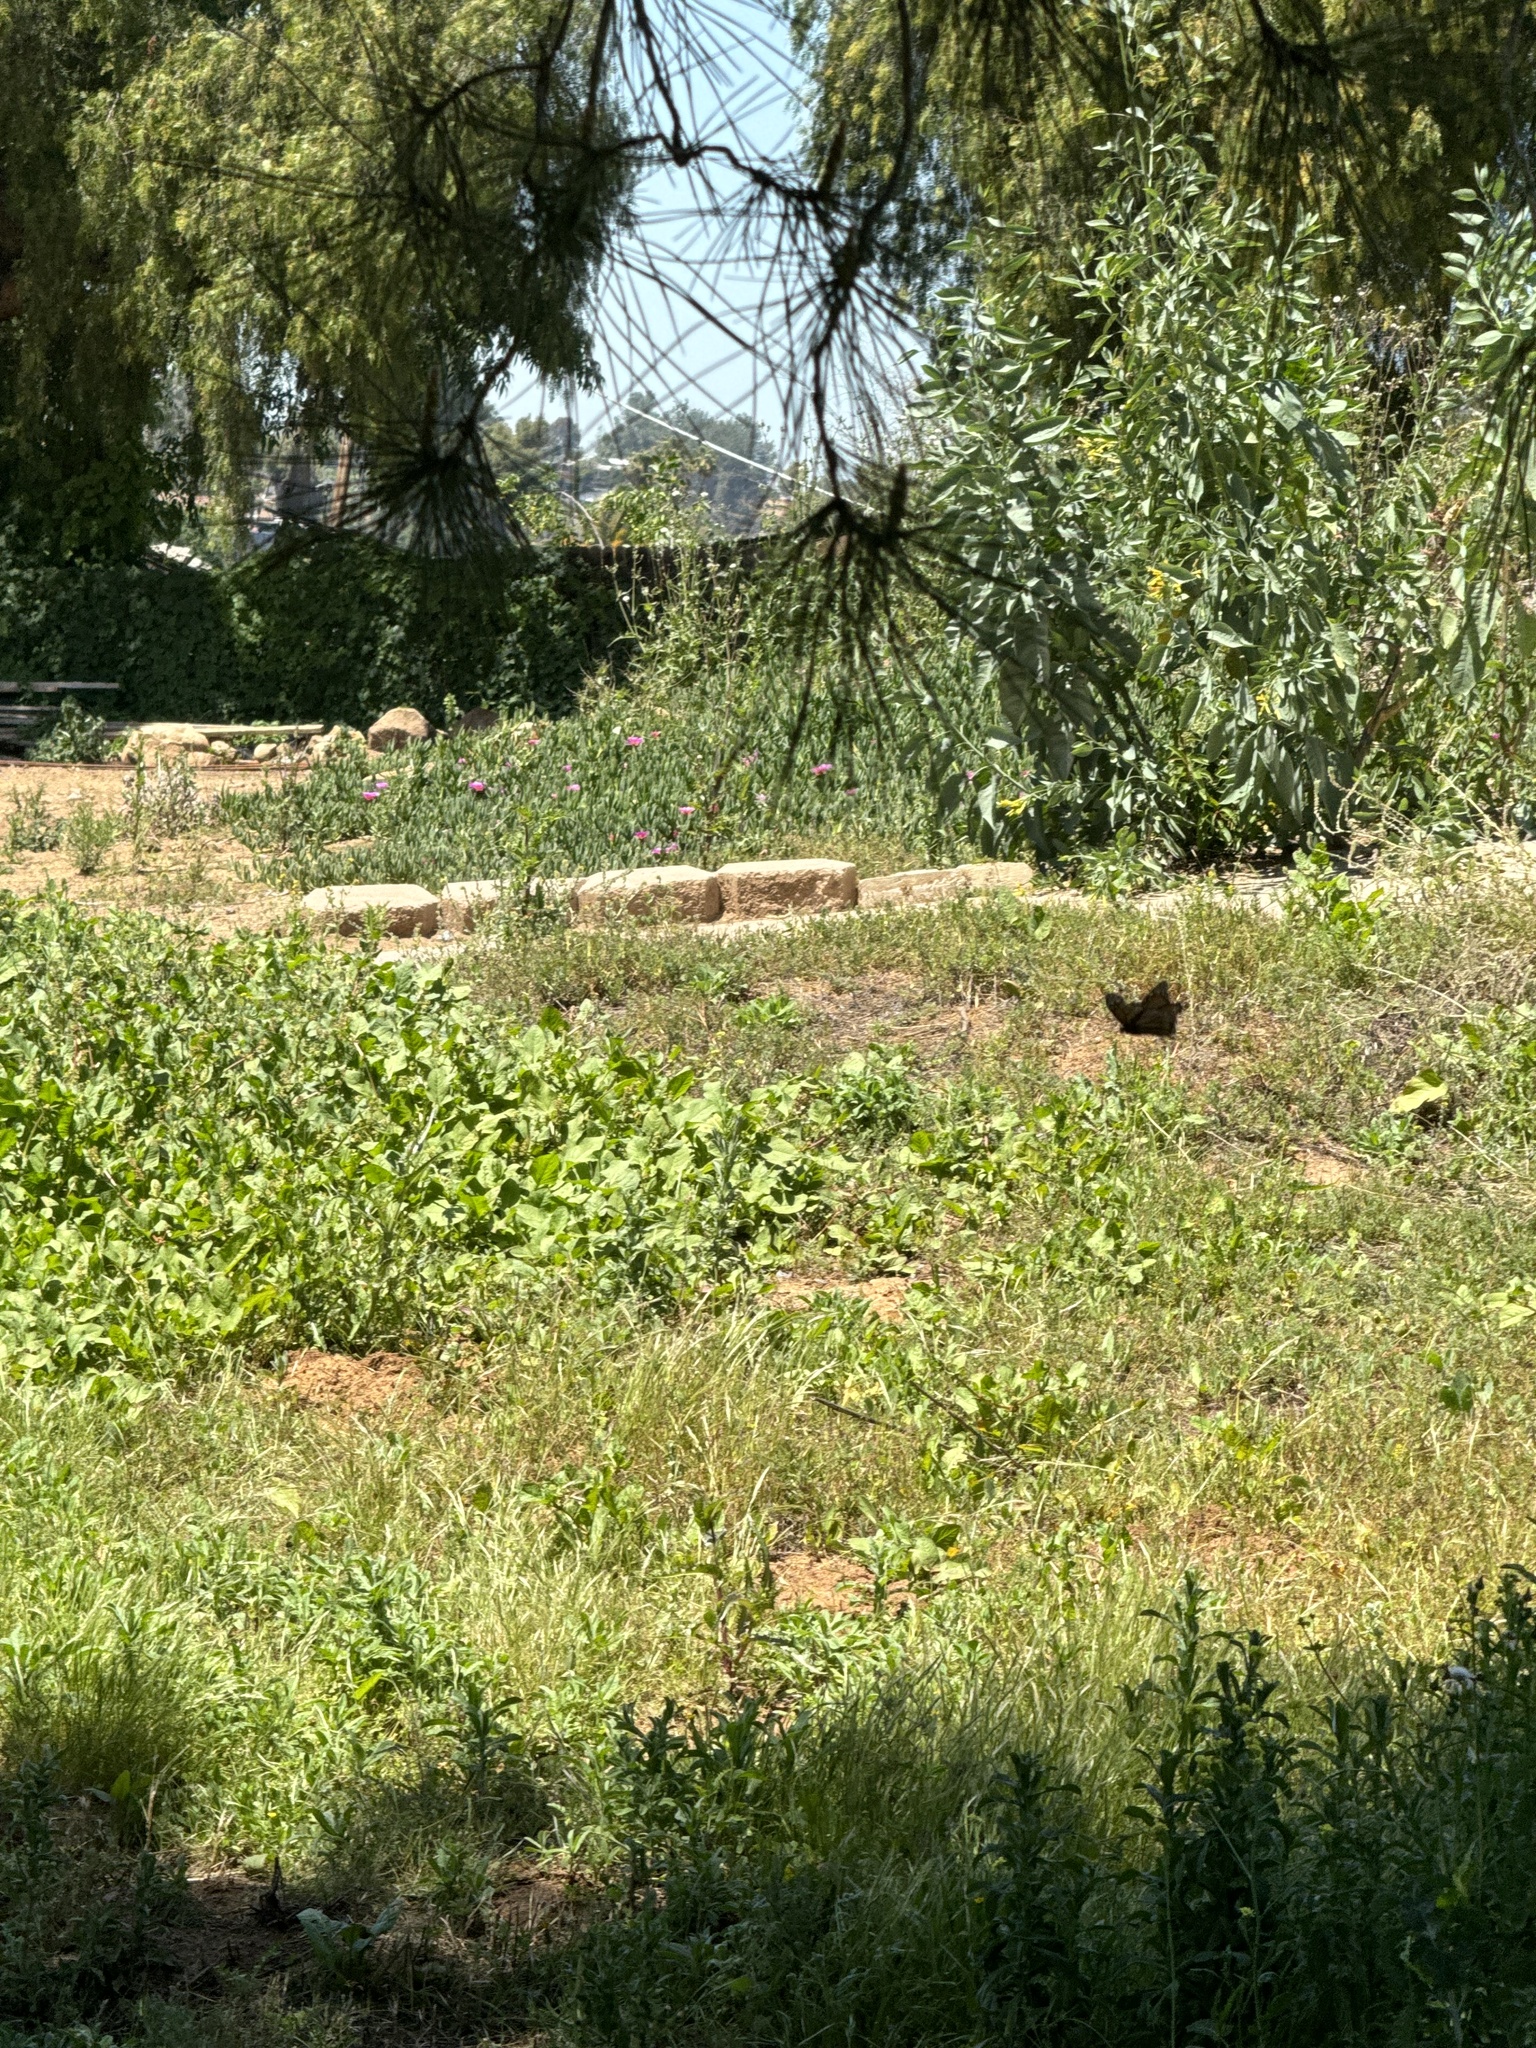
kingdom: Animalia
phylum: Arthropoda
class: Insecta
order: Lepidoptera
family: Nymphalidae
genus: Danaus
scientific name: Danaus plexippus
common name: Monarch
